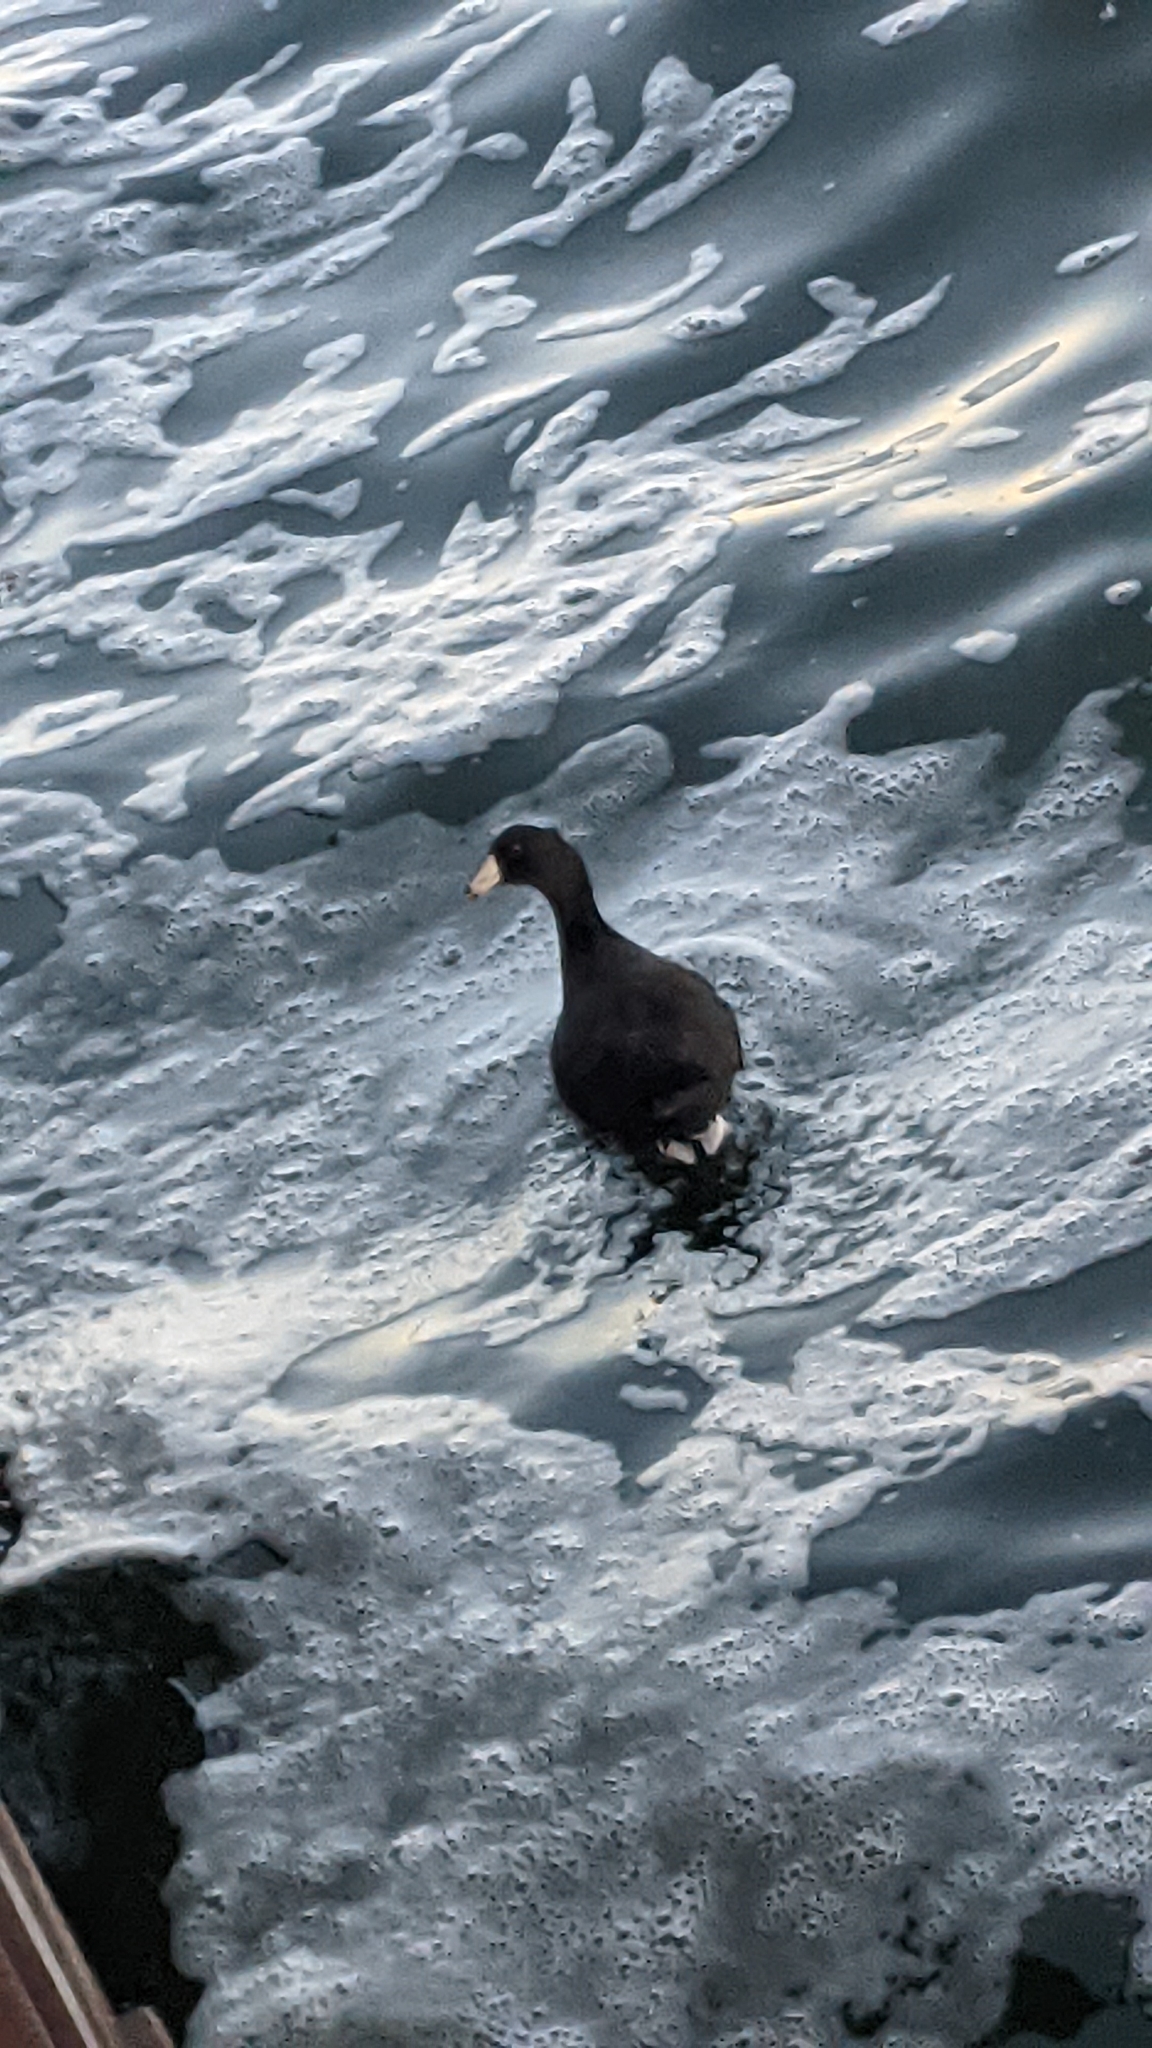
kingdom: Animalia
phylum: Chordata
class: Aves
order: Gruiformes
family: Rallidae
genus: Fulica
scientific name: Fulica americana
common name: American coot
